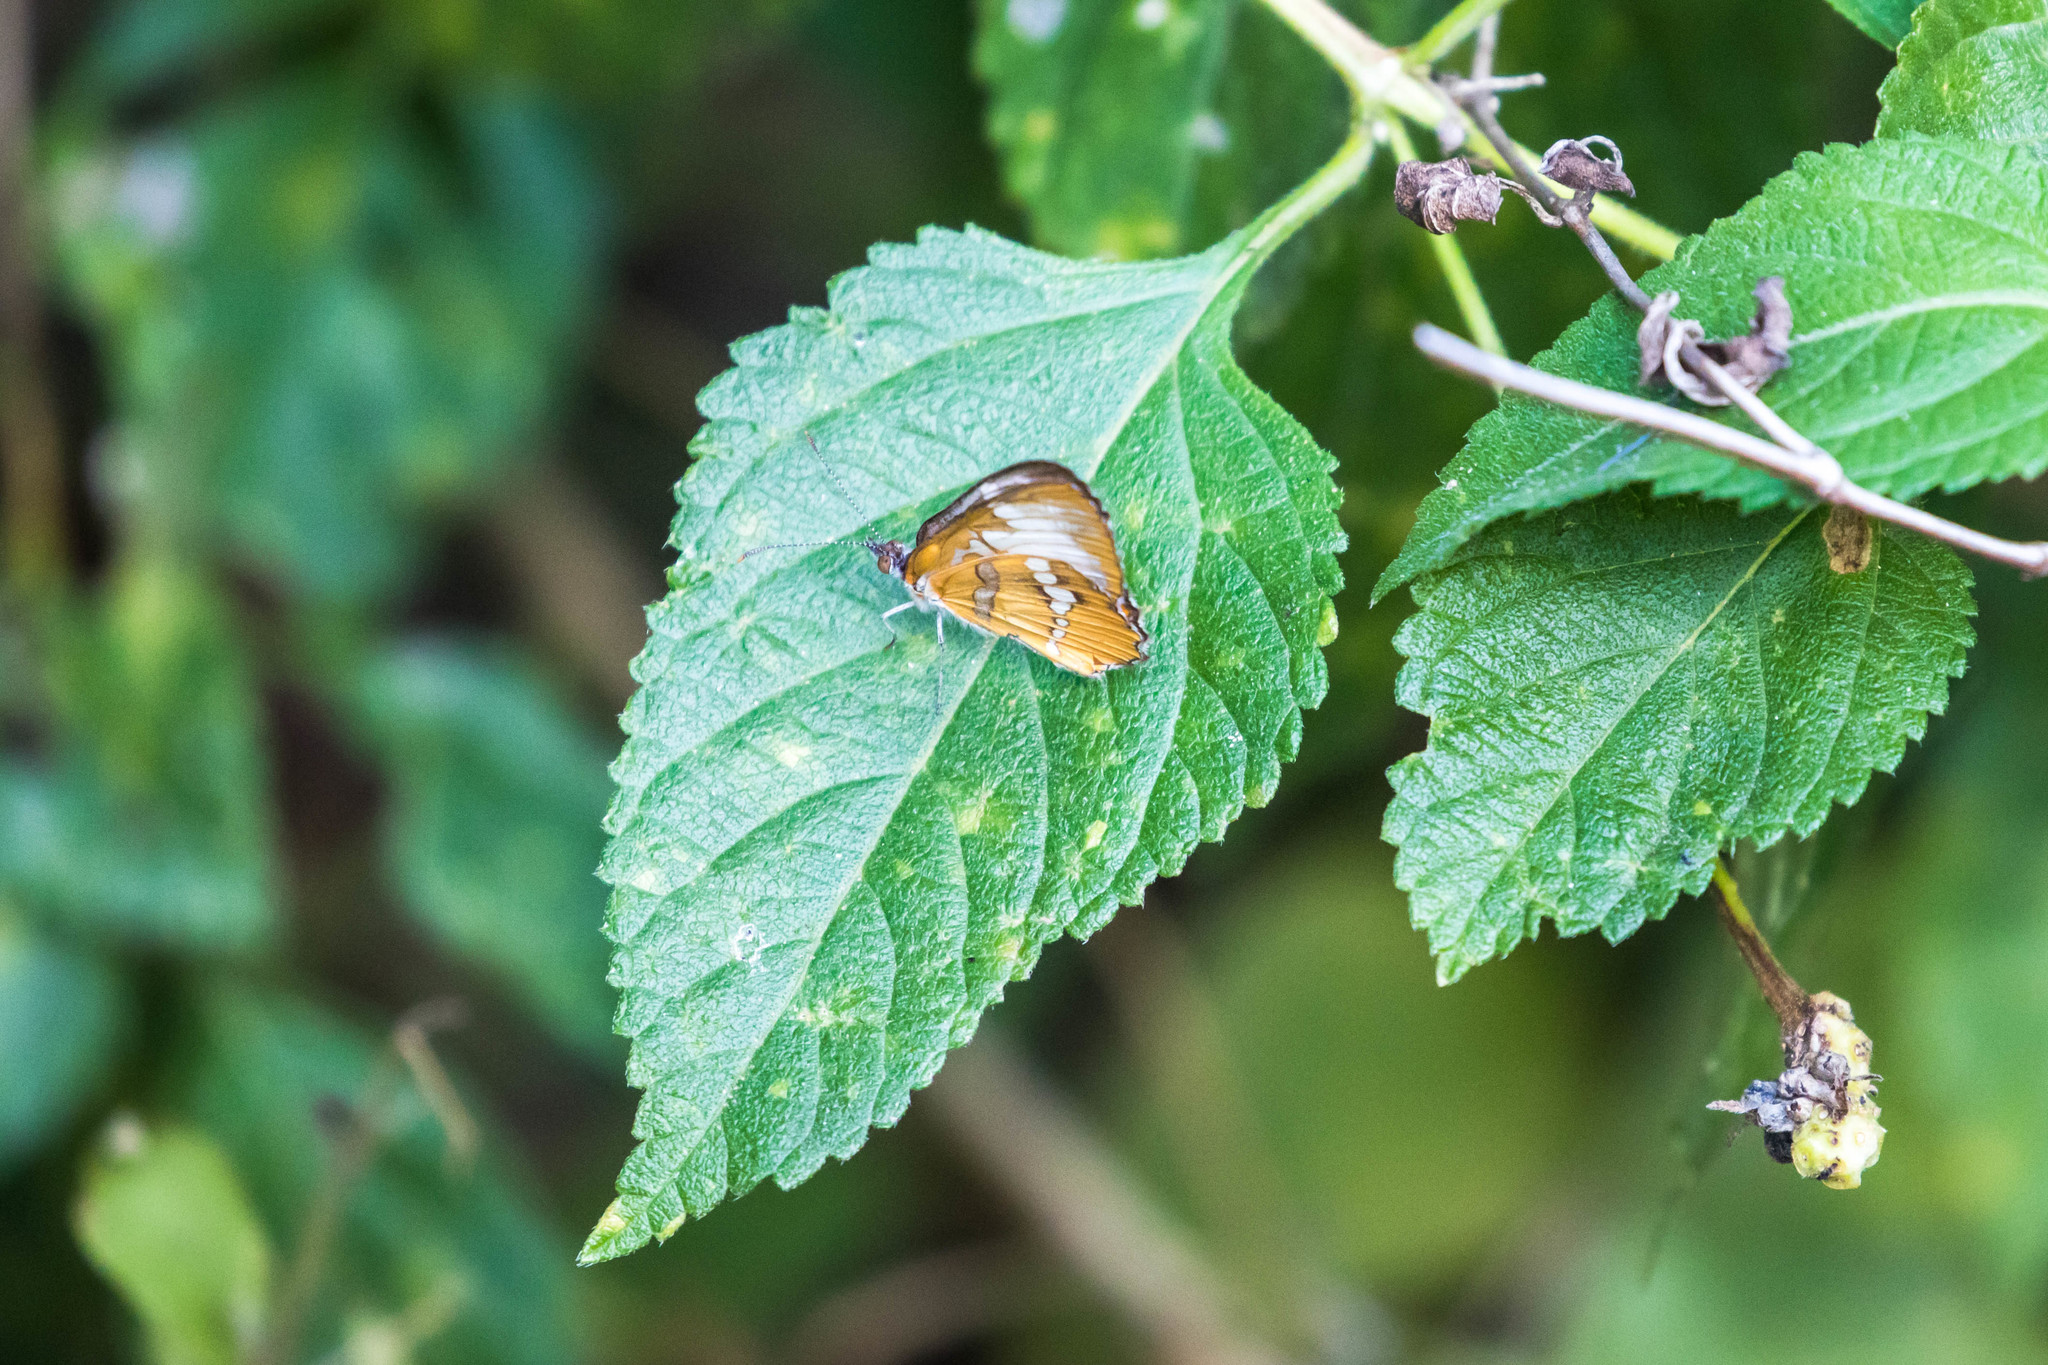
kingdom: Animalia
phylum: Arthropoda
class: Insecta
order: Lepidoptera
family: Nymphalidae
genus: Mestra
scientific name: Mestra amymone
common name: Common mestra
